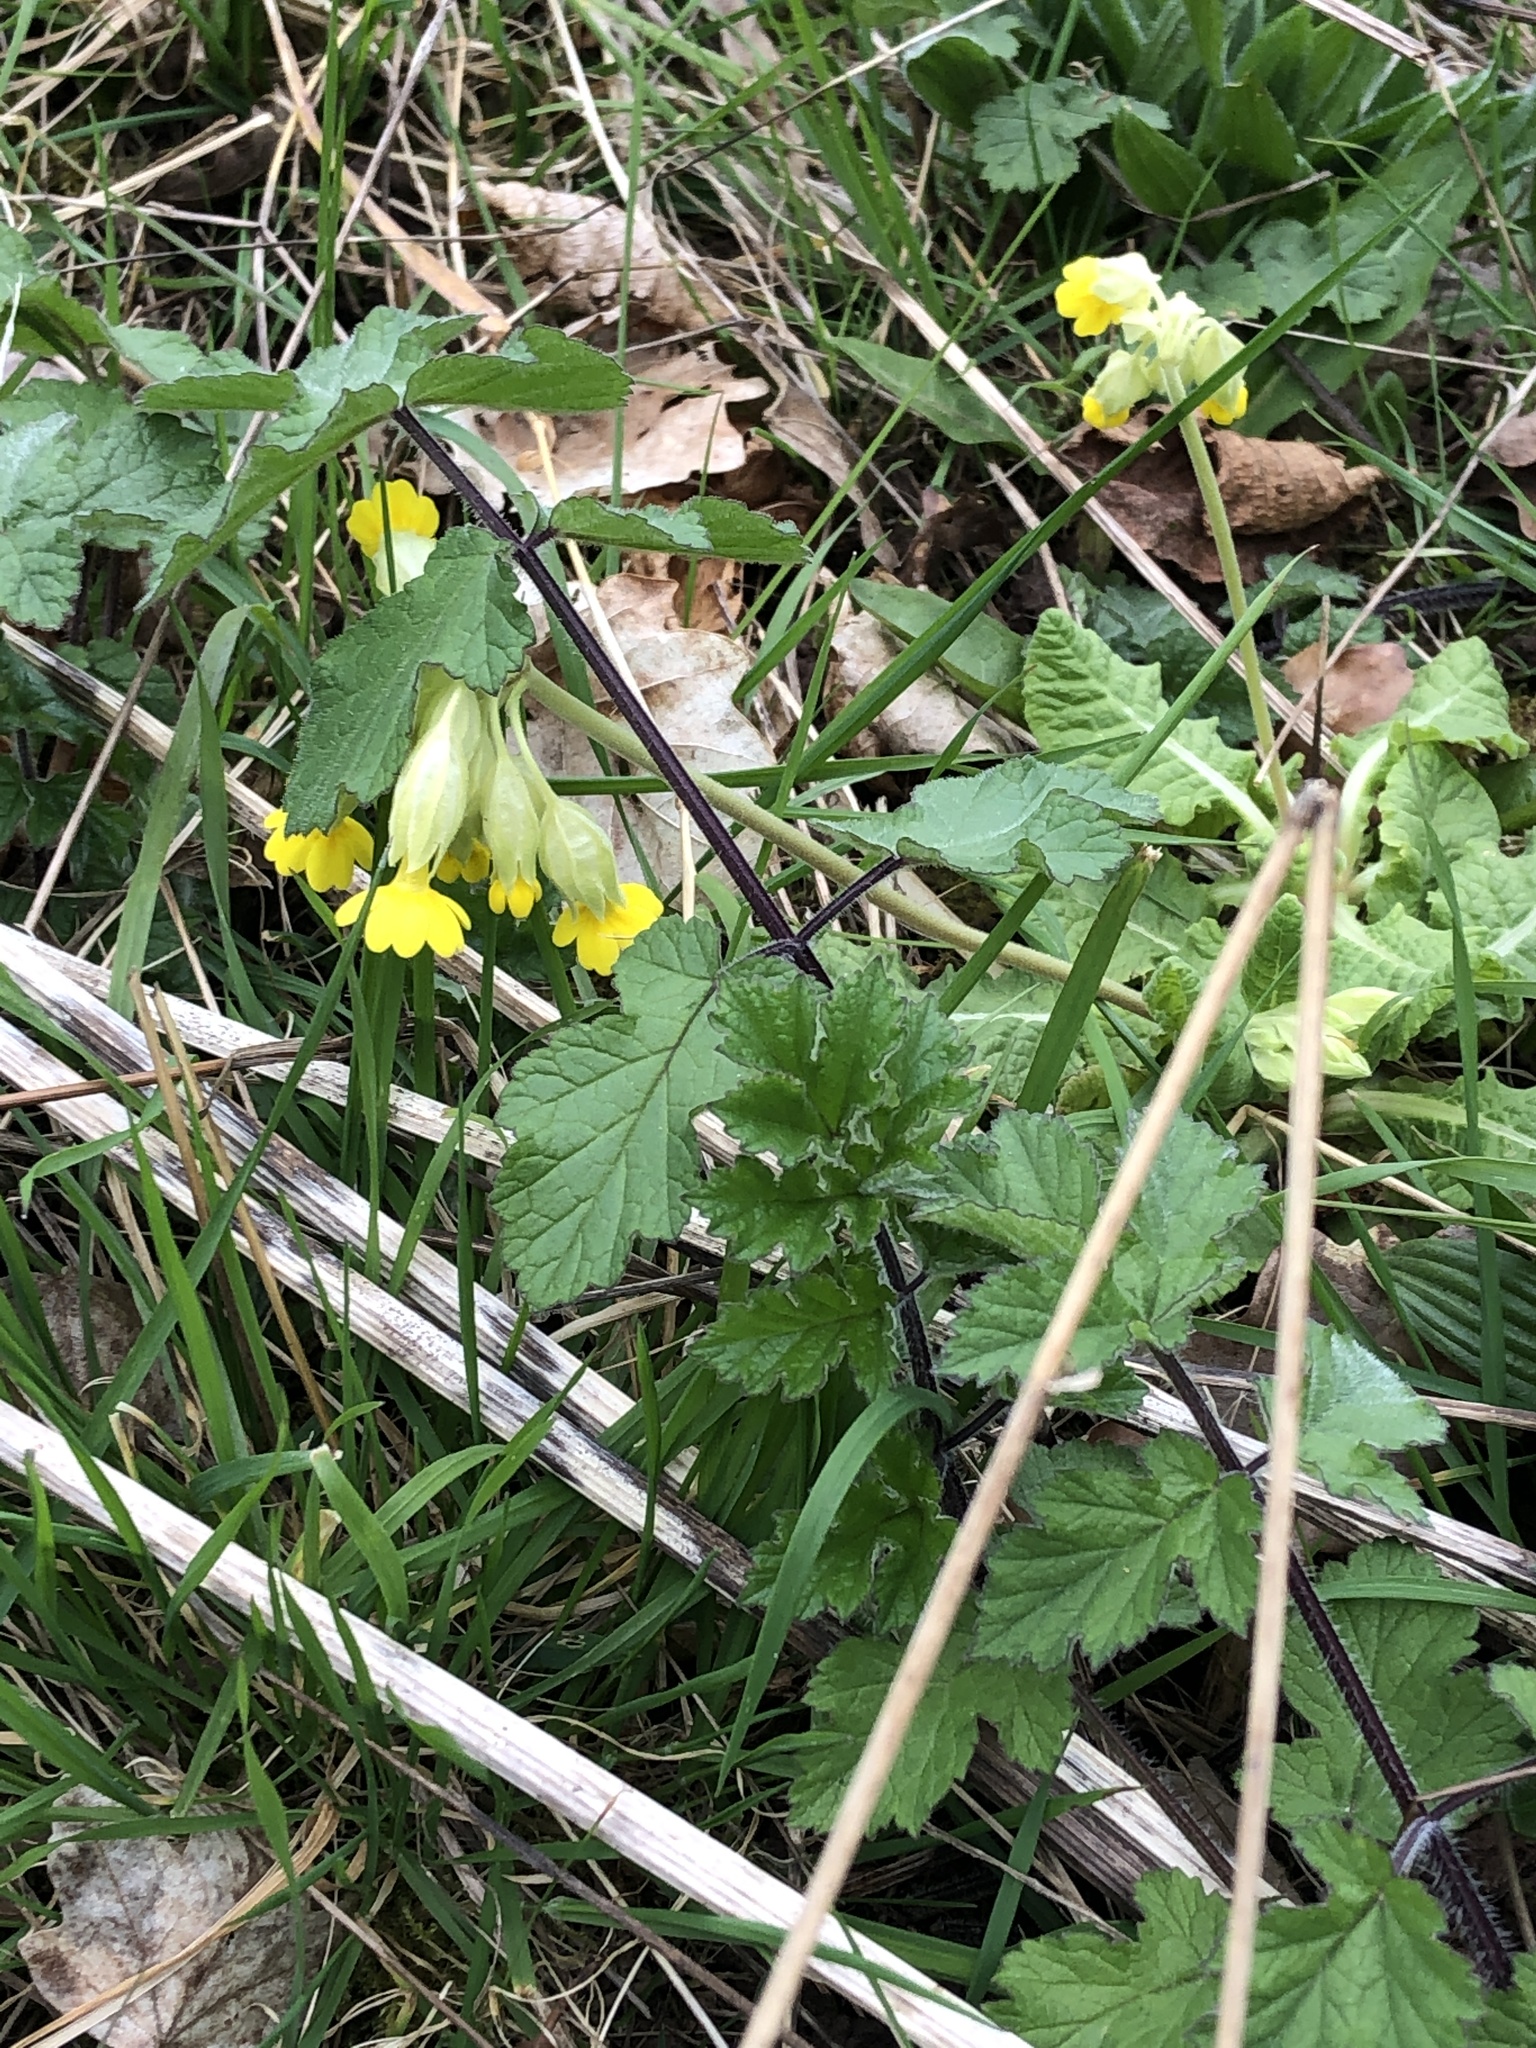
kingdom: Plantae
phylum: Tracheophyta
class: Magnoliopsida
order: Ericales
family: Primulaceae
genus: Primula
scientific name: Primula veris
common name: Cowslip
